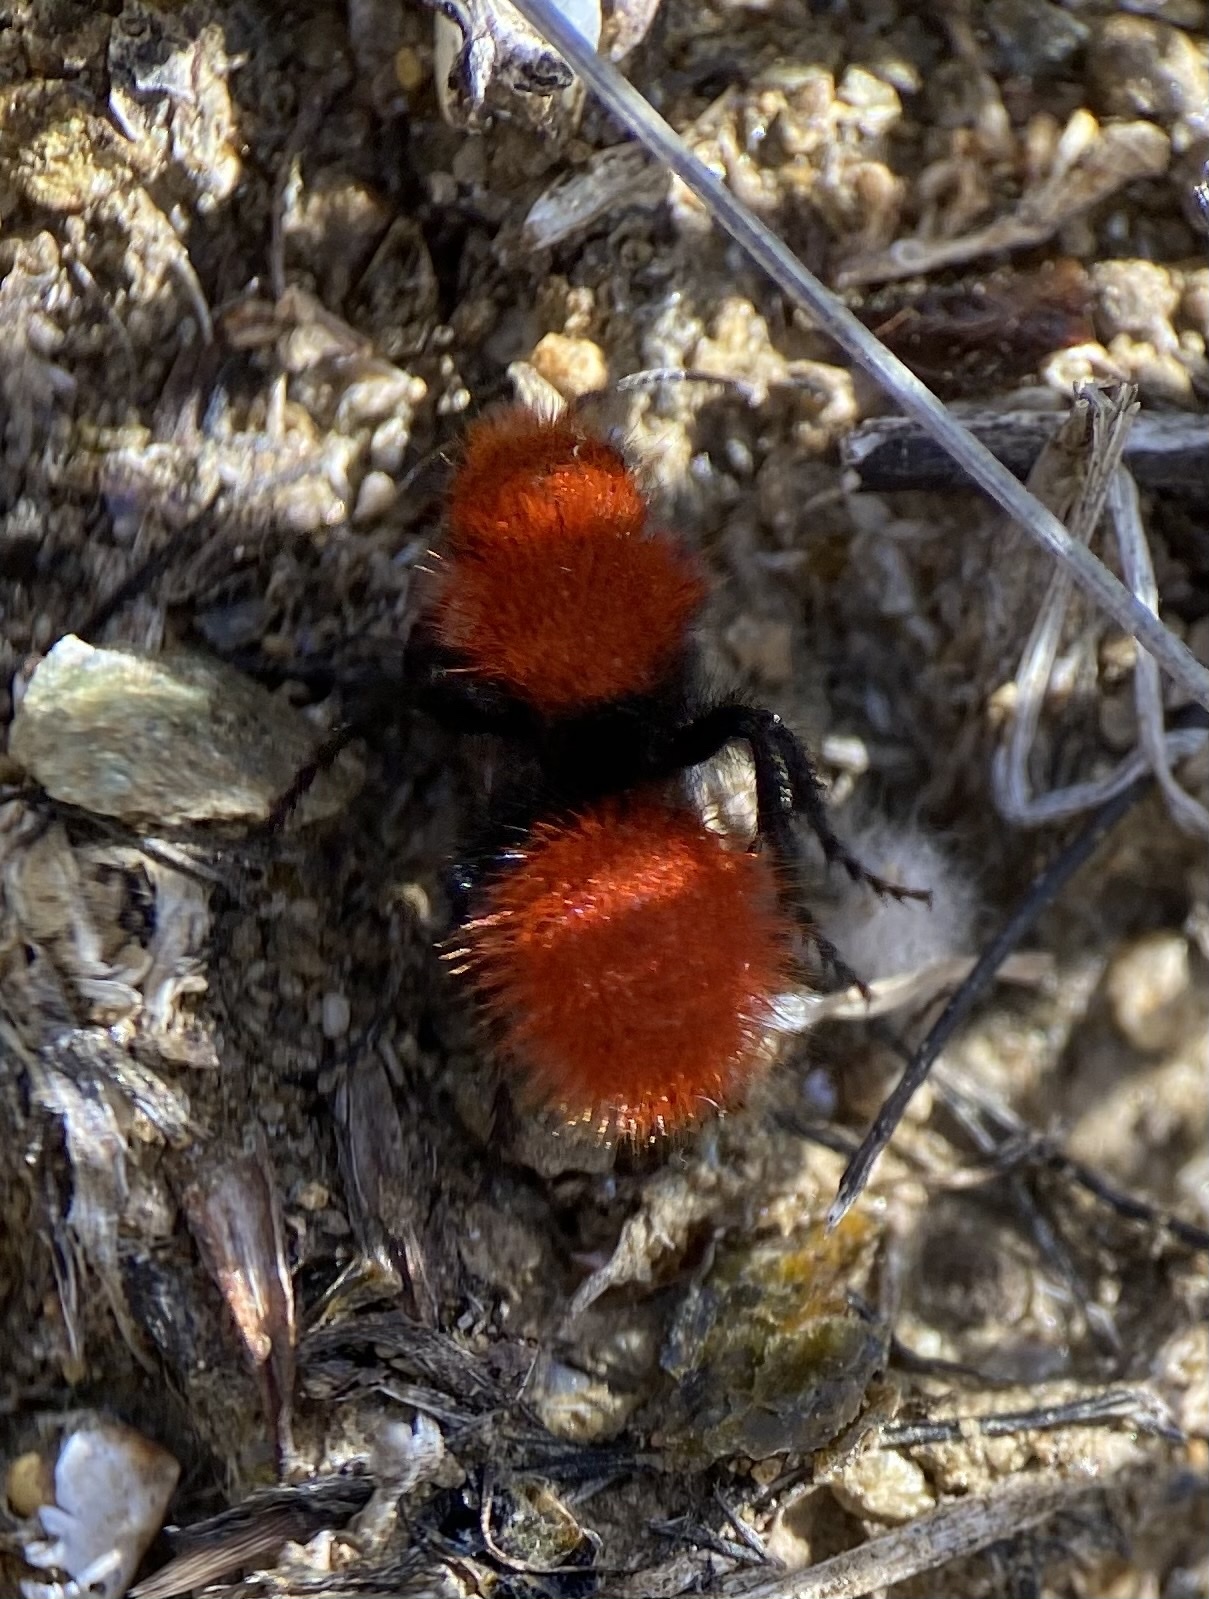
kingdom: Animalia
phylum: Arthropoda
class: Insecta
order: Hymenoptera
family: Mutillidae
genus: Dasymutilla
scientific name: Dasymutilla
